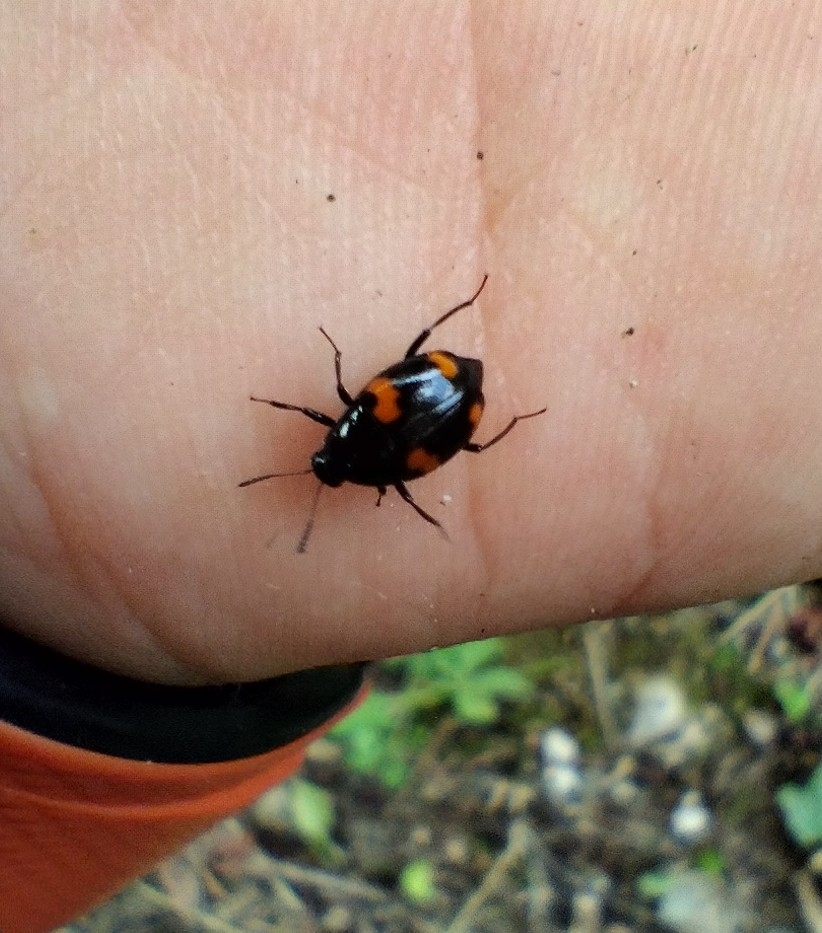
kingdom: Animalia
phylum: Arthropoda
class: Insecta
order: Coleoptera
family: Staphylinidae
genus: Scaphidium
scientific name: Scaphidium quadrimaculatum
